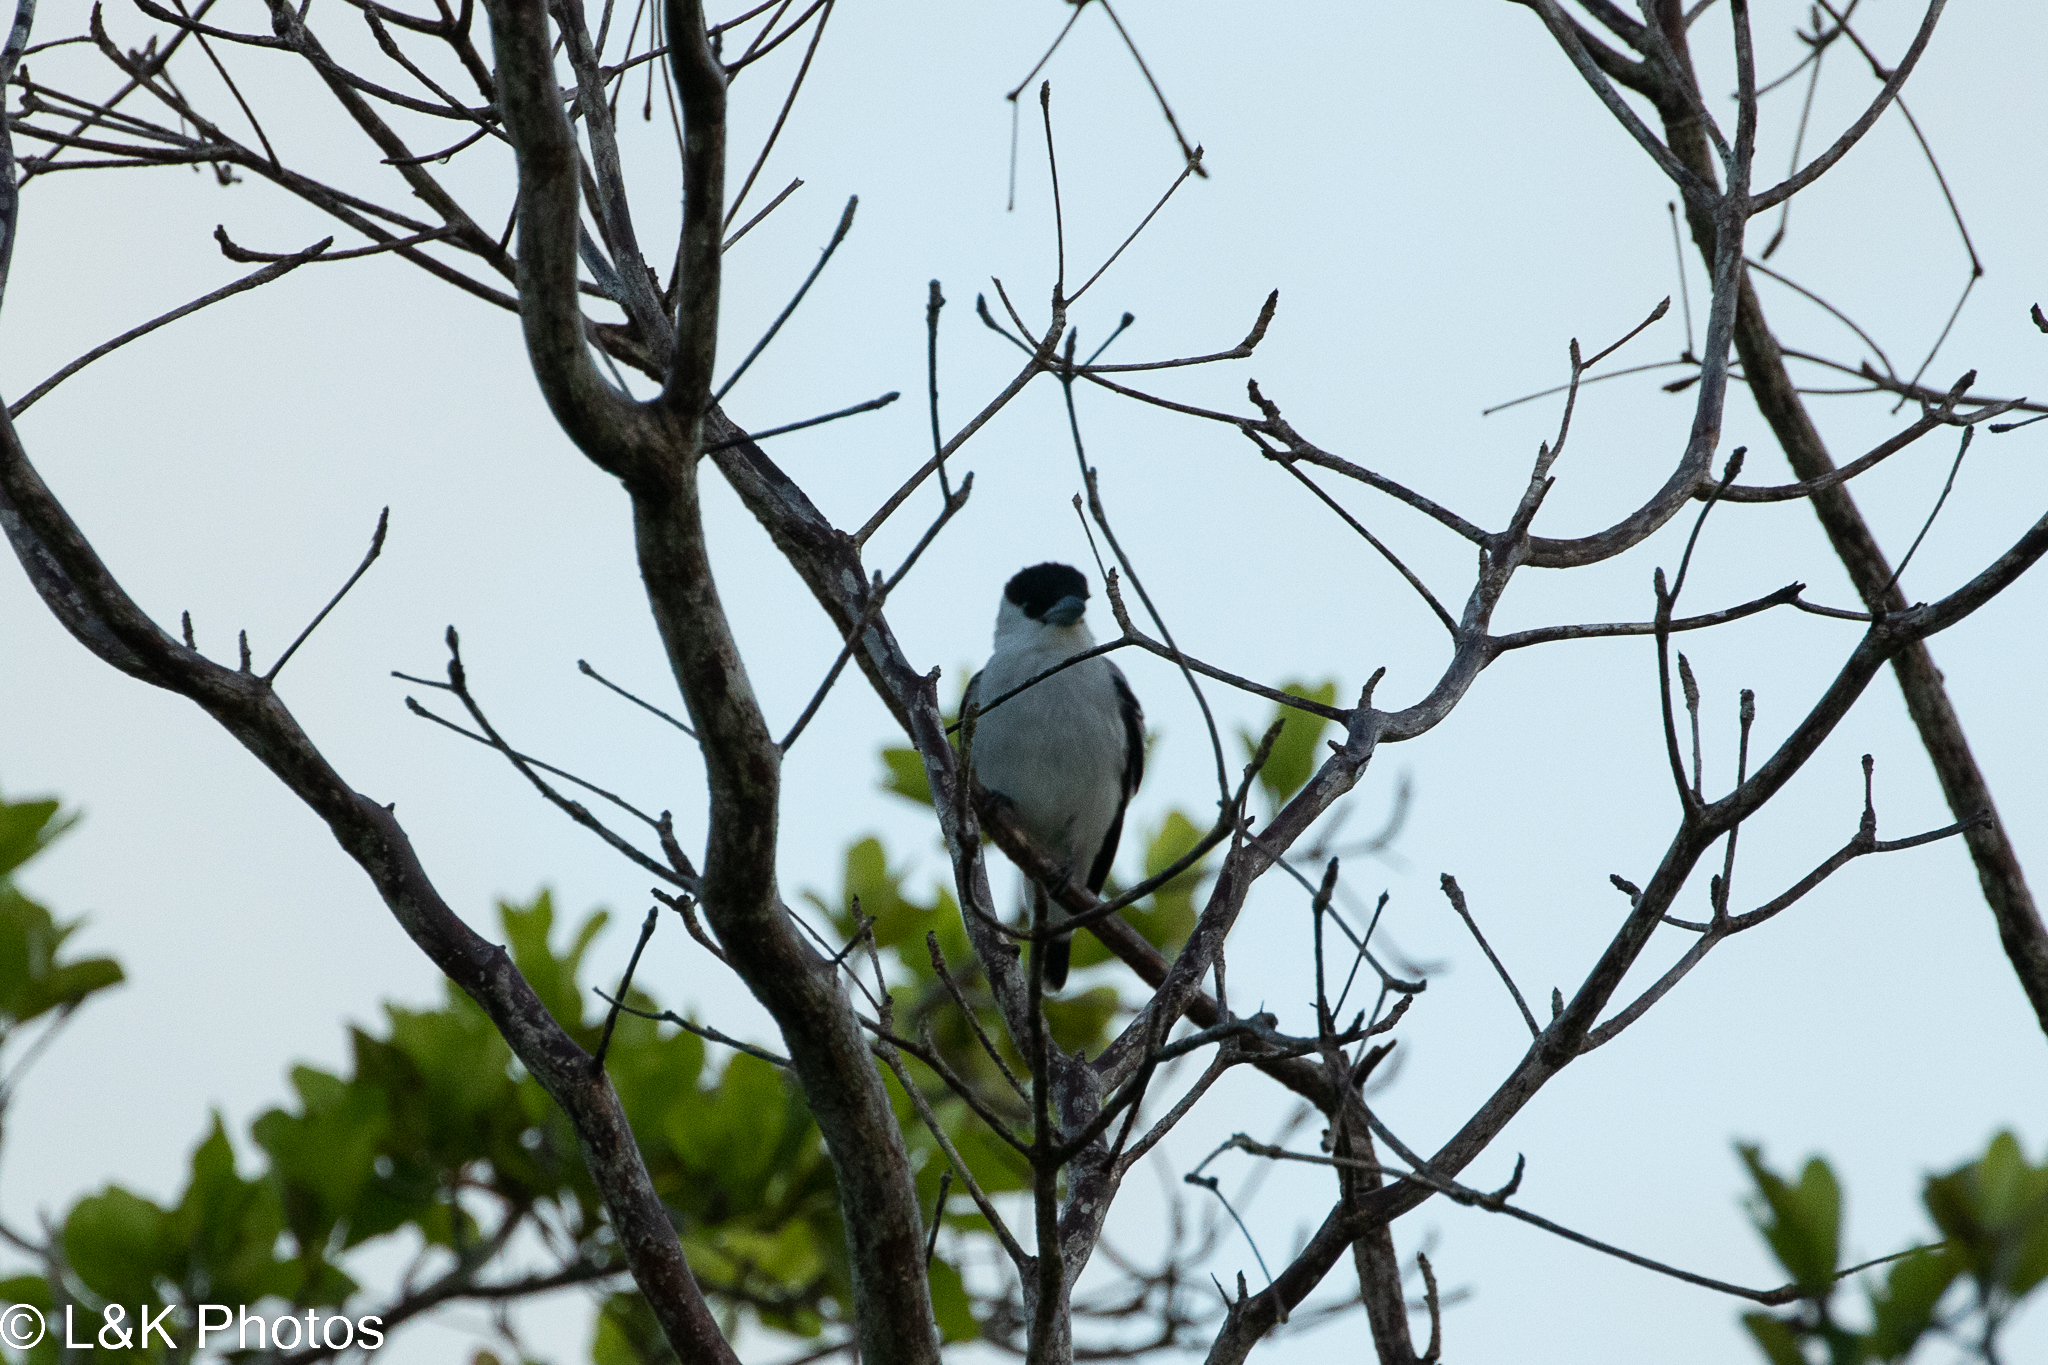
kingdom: Animalia
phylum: Chordata
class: Aves
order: Passeriformes
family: Cotingidae
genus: Tityra
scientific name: Tityra inquisitor
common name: Black-crowned tityra
